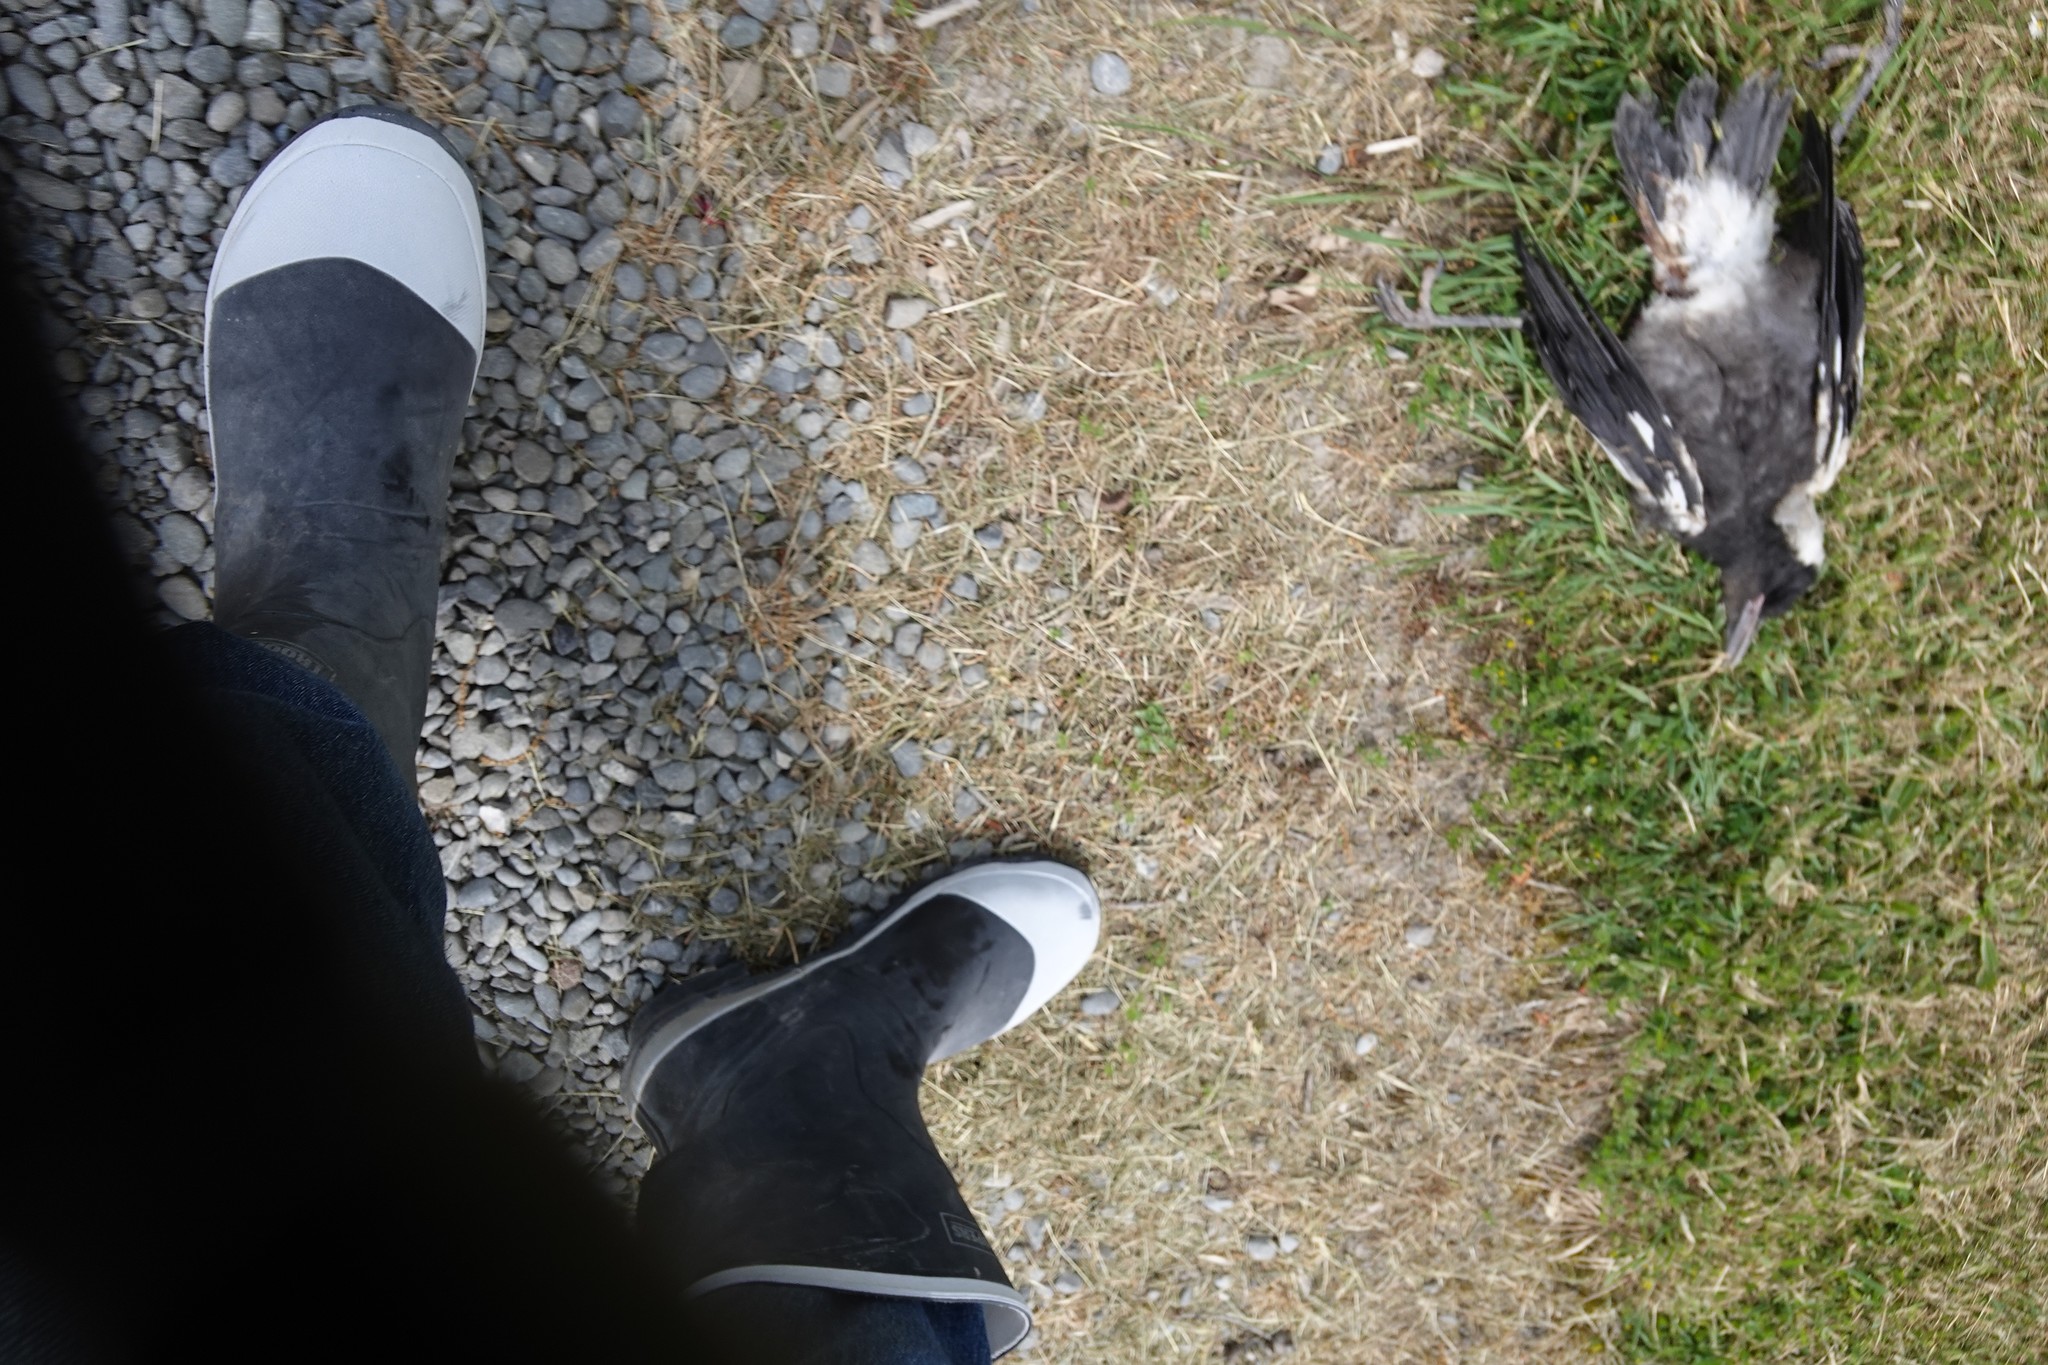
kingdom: Animalia
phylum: Chordata
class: Aves
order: Passeriformes
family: Cracticidae
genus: Gymnorhina
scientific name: Gymnorhina tibicen
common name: Australian magpie
